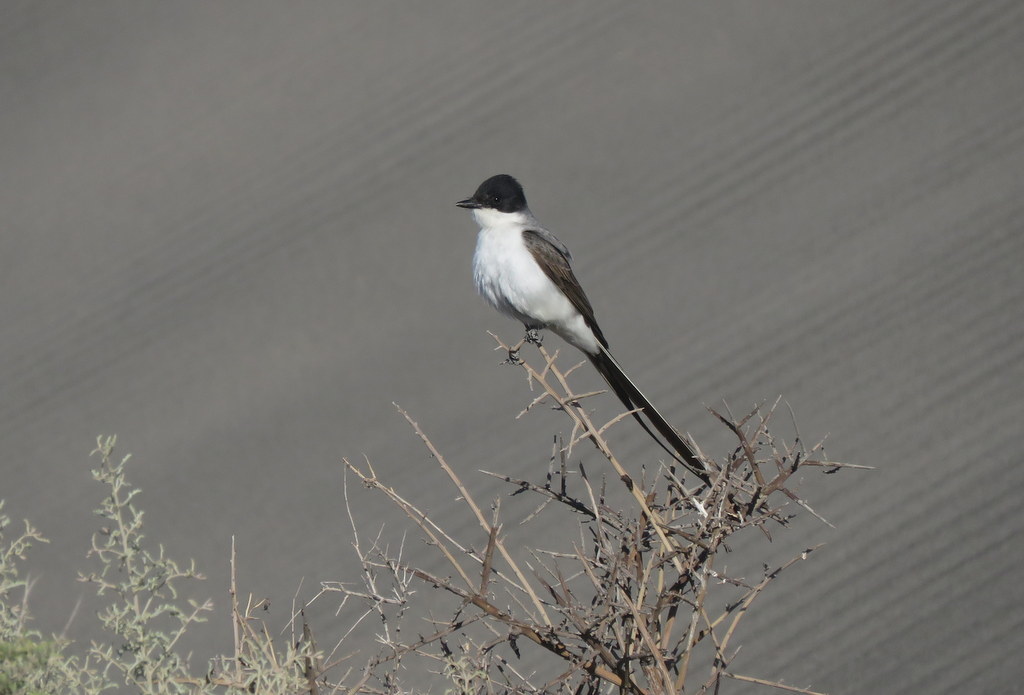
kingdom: Animalia
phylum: Chordata
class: Aves
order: Passeriformes
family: Tyrannidae
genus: Tyrannus
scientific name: Tyrannus savana
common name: Fork-tailed flycatcher
